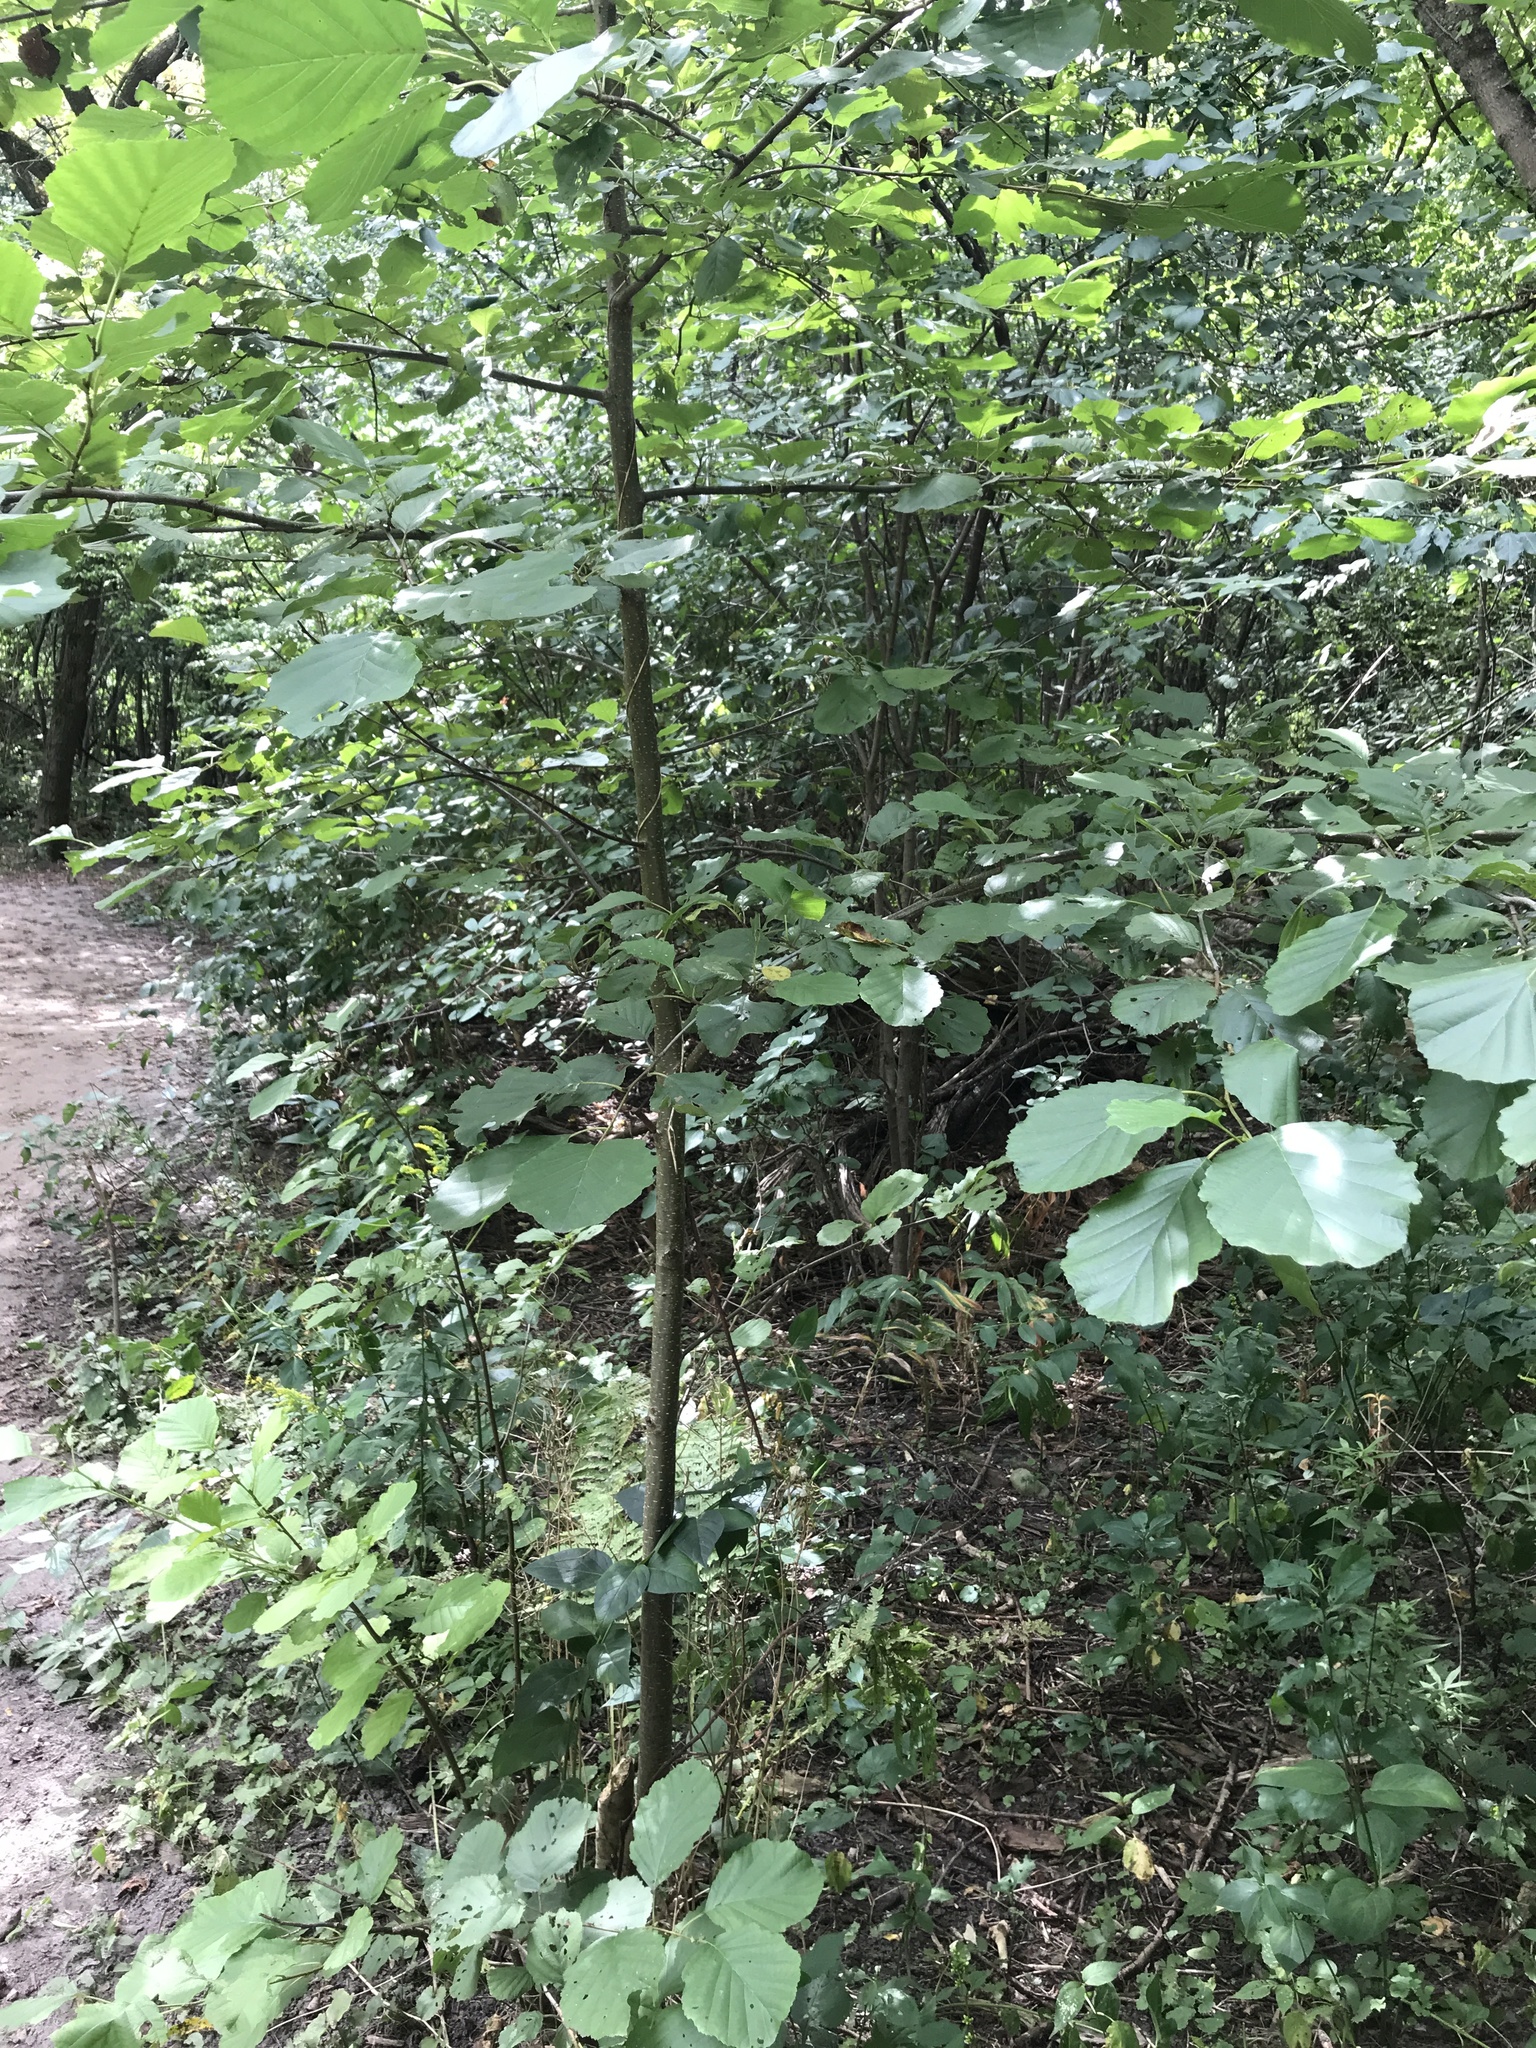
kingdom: Plantae
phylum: Tracheophyta
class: Magnoliopsida
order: Fagales
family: Betulaceae
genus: Alnus
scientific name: Alnus glutinosa
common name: Black alder
